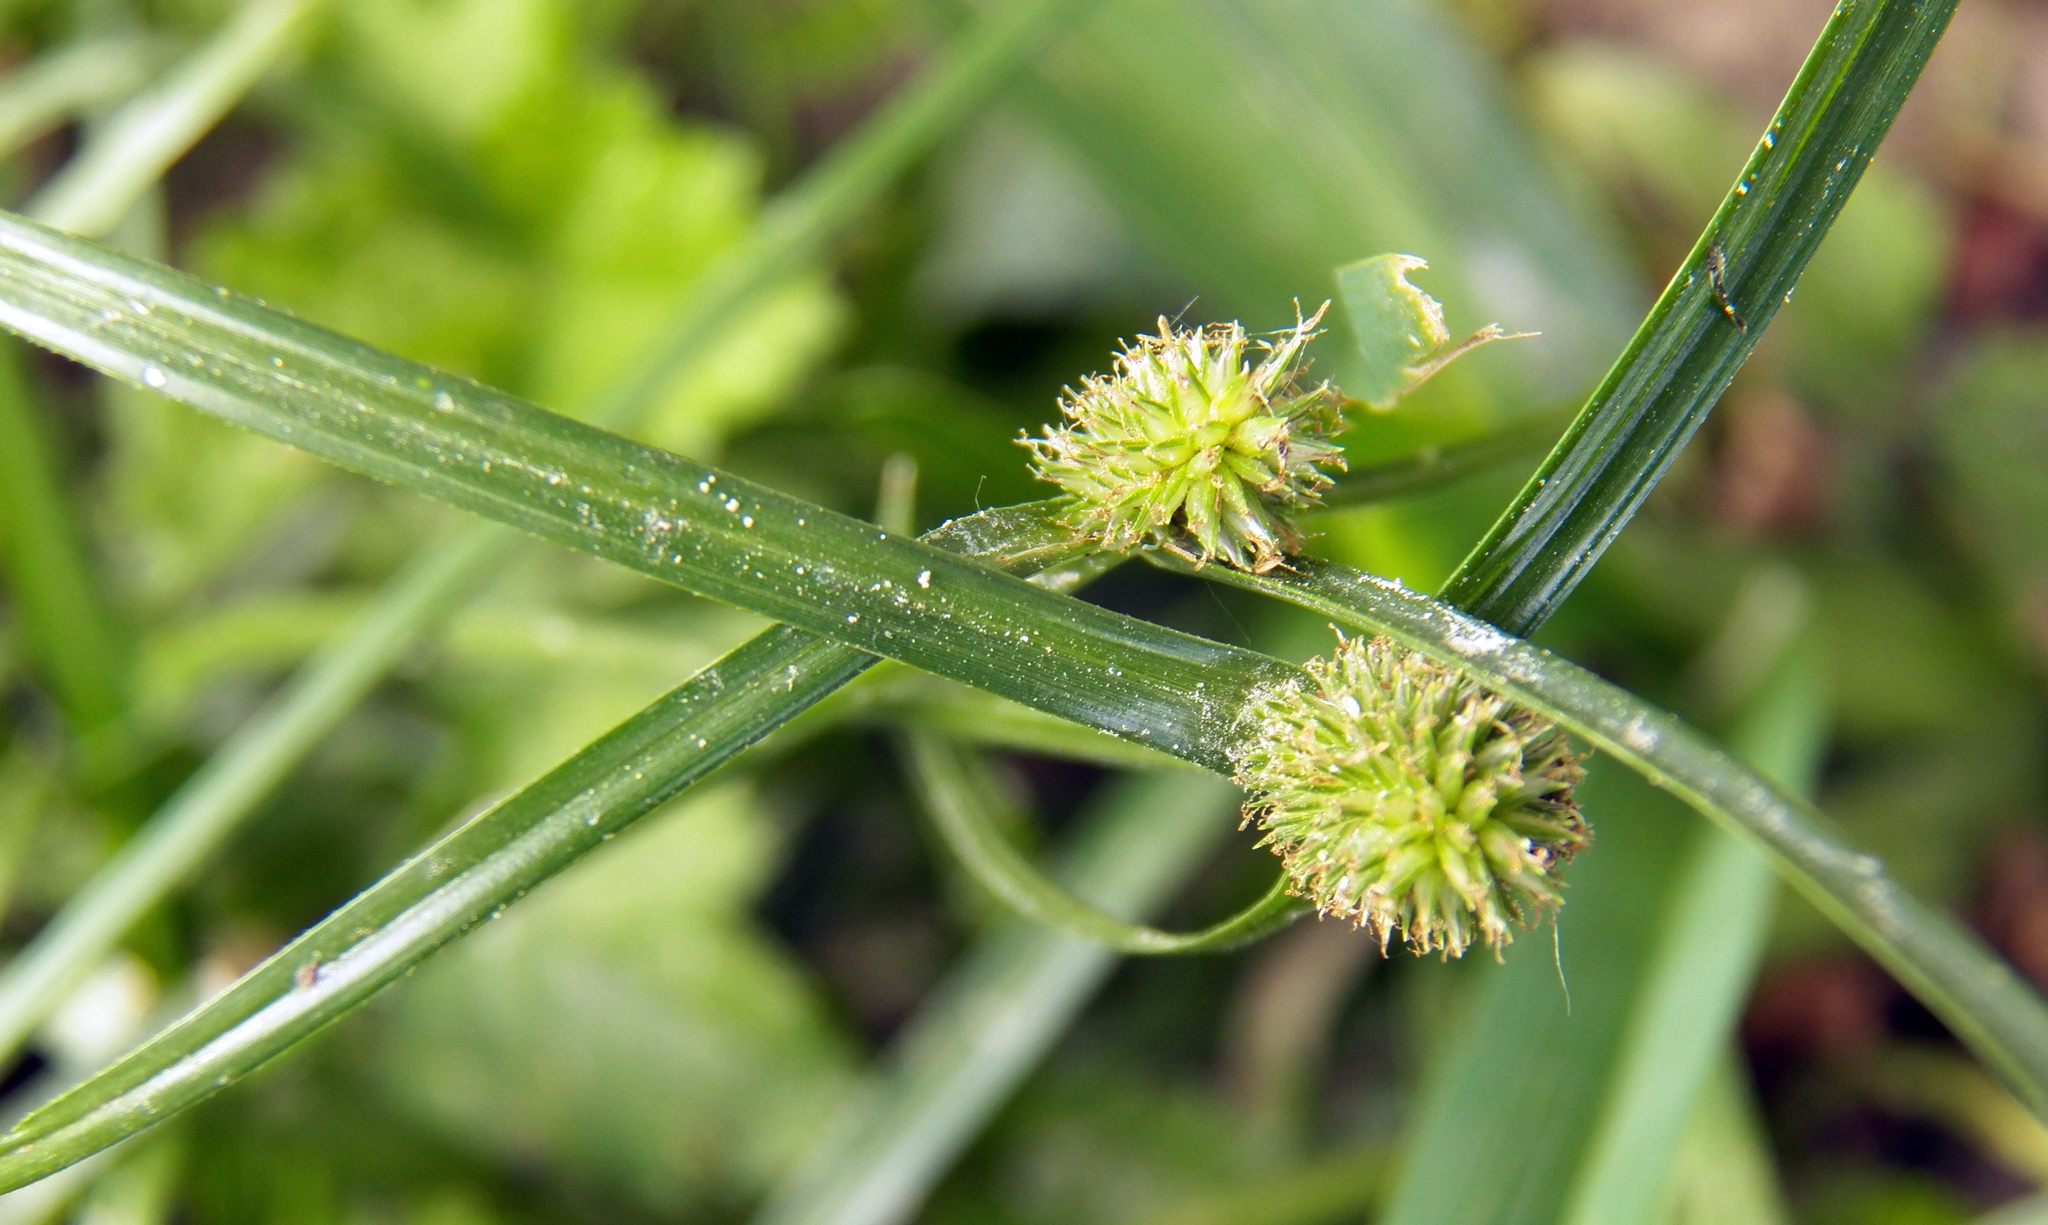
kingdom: Plantae
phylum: Tracheophyta
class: Liliopsida
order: Poales
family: Cyperaceae
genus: Cyperus
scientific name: Cyperus brevifolius
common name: Globe kyllinga
